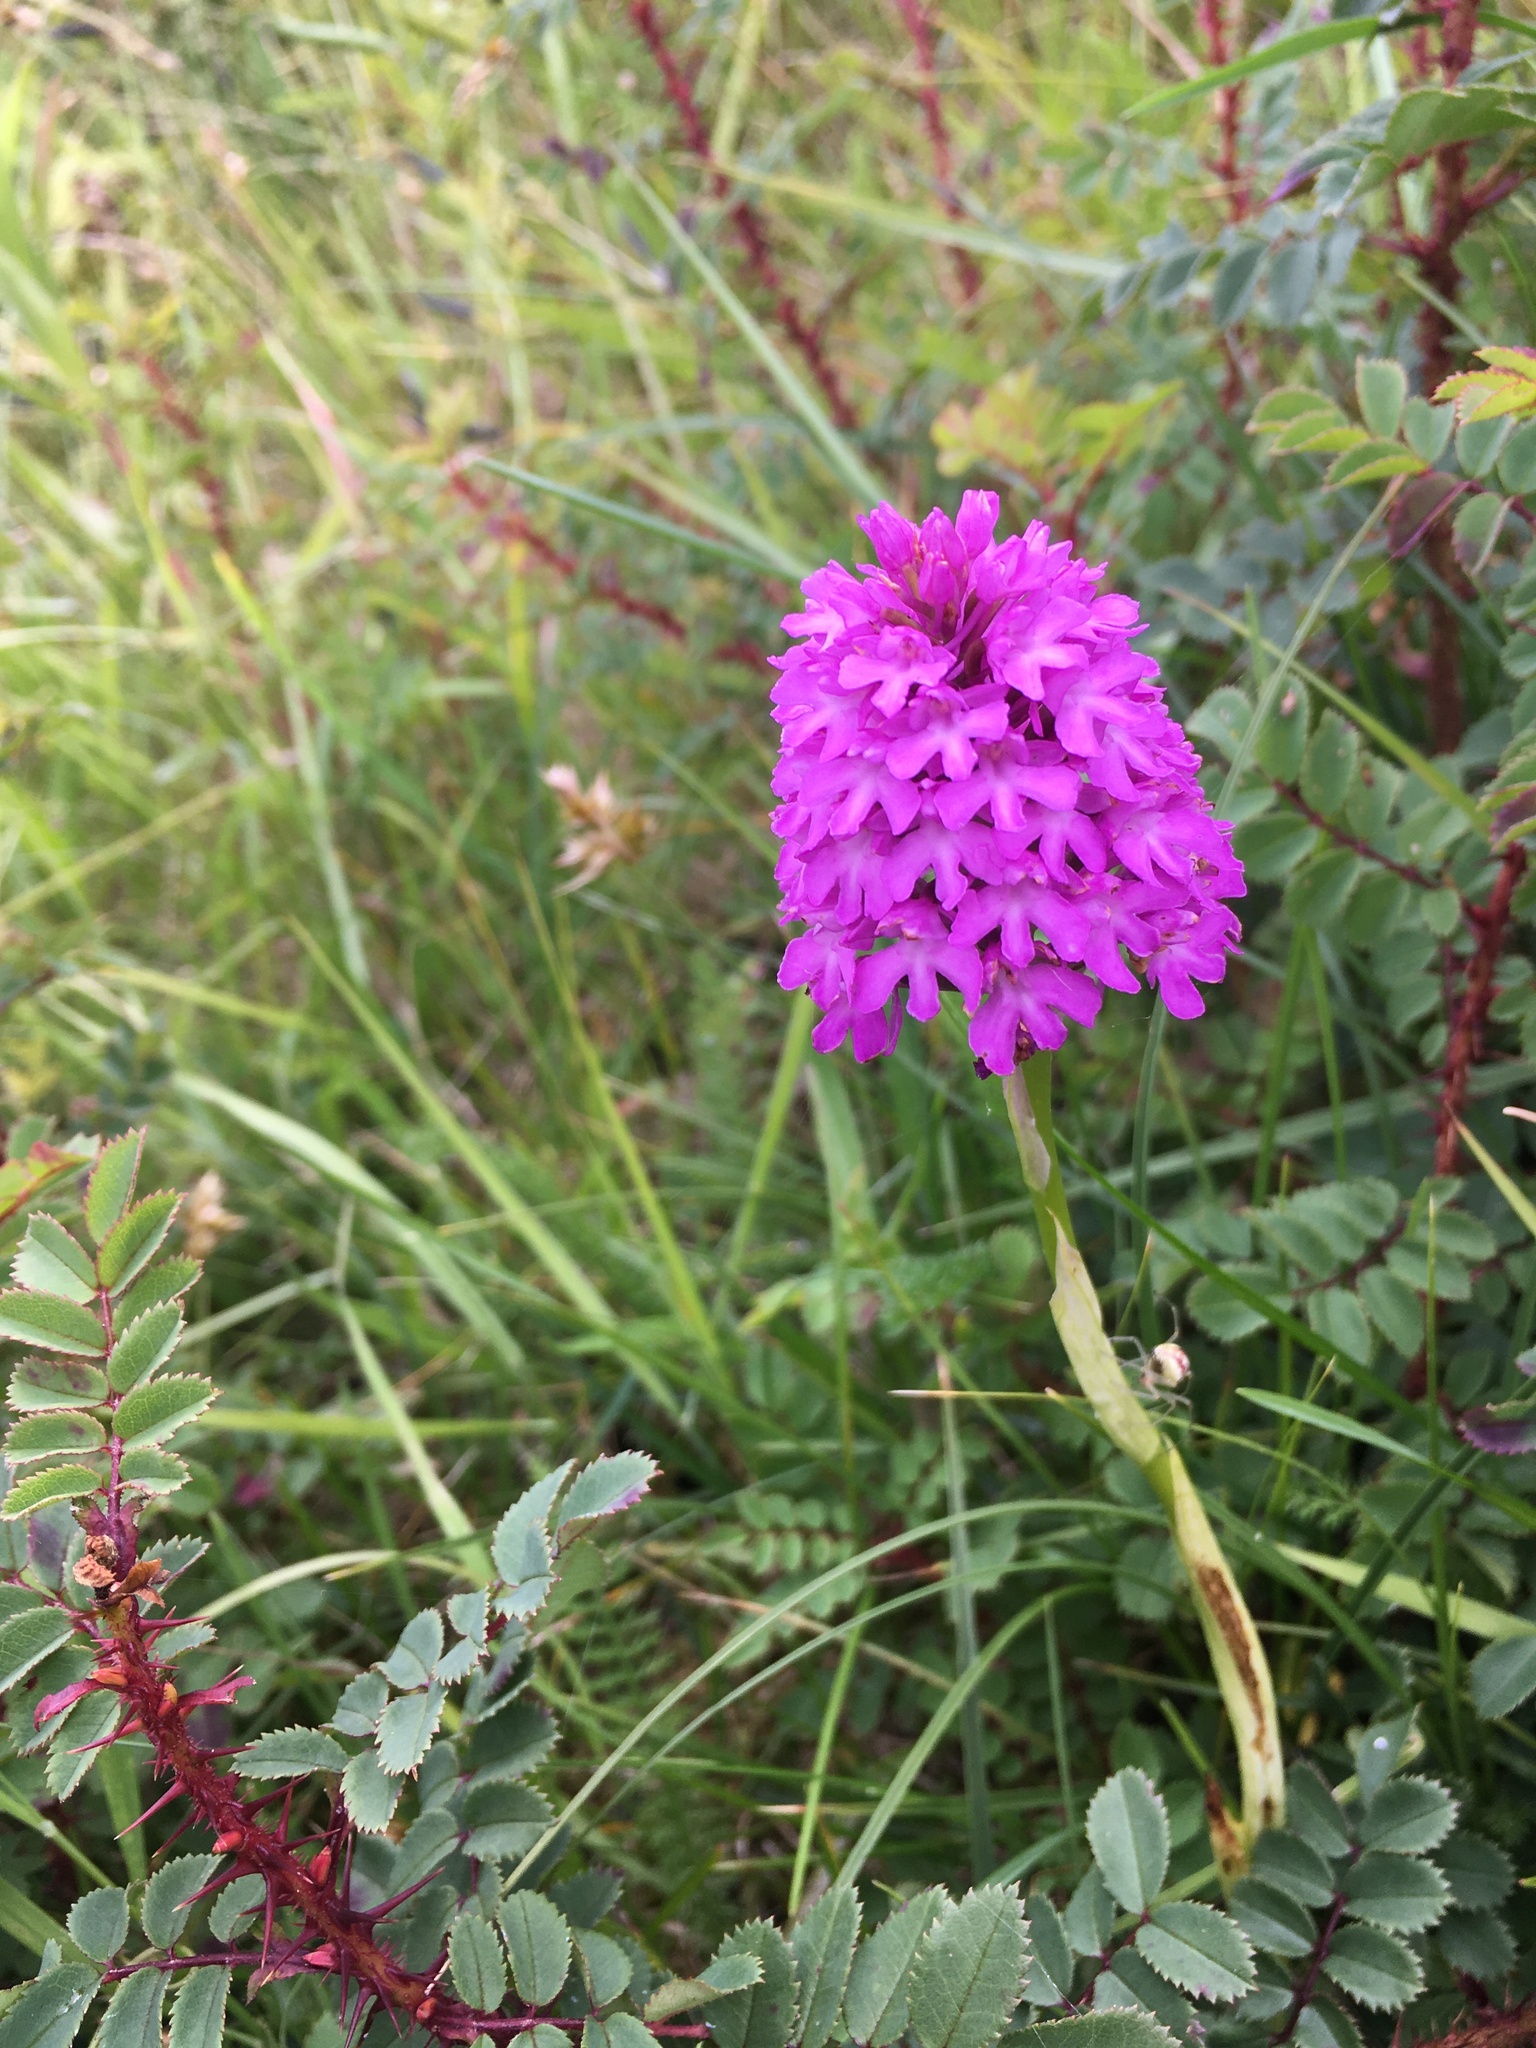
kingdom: Plantae
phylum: Tracheophyta
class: Liliopsida
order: Asparagales
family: Orchidaceae
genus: Anacamptis
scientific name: Anacamptis pyramidalis
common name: Pyramidal orchid
